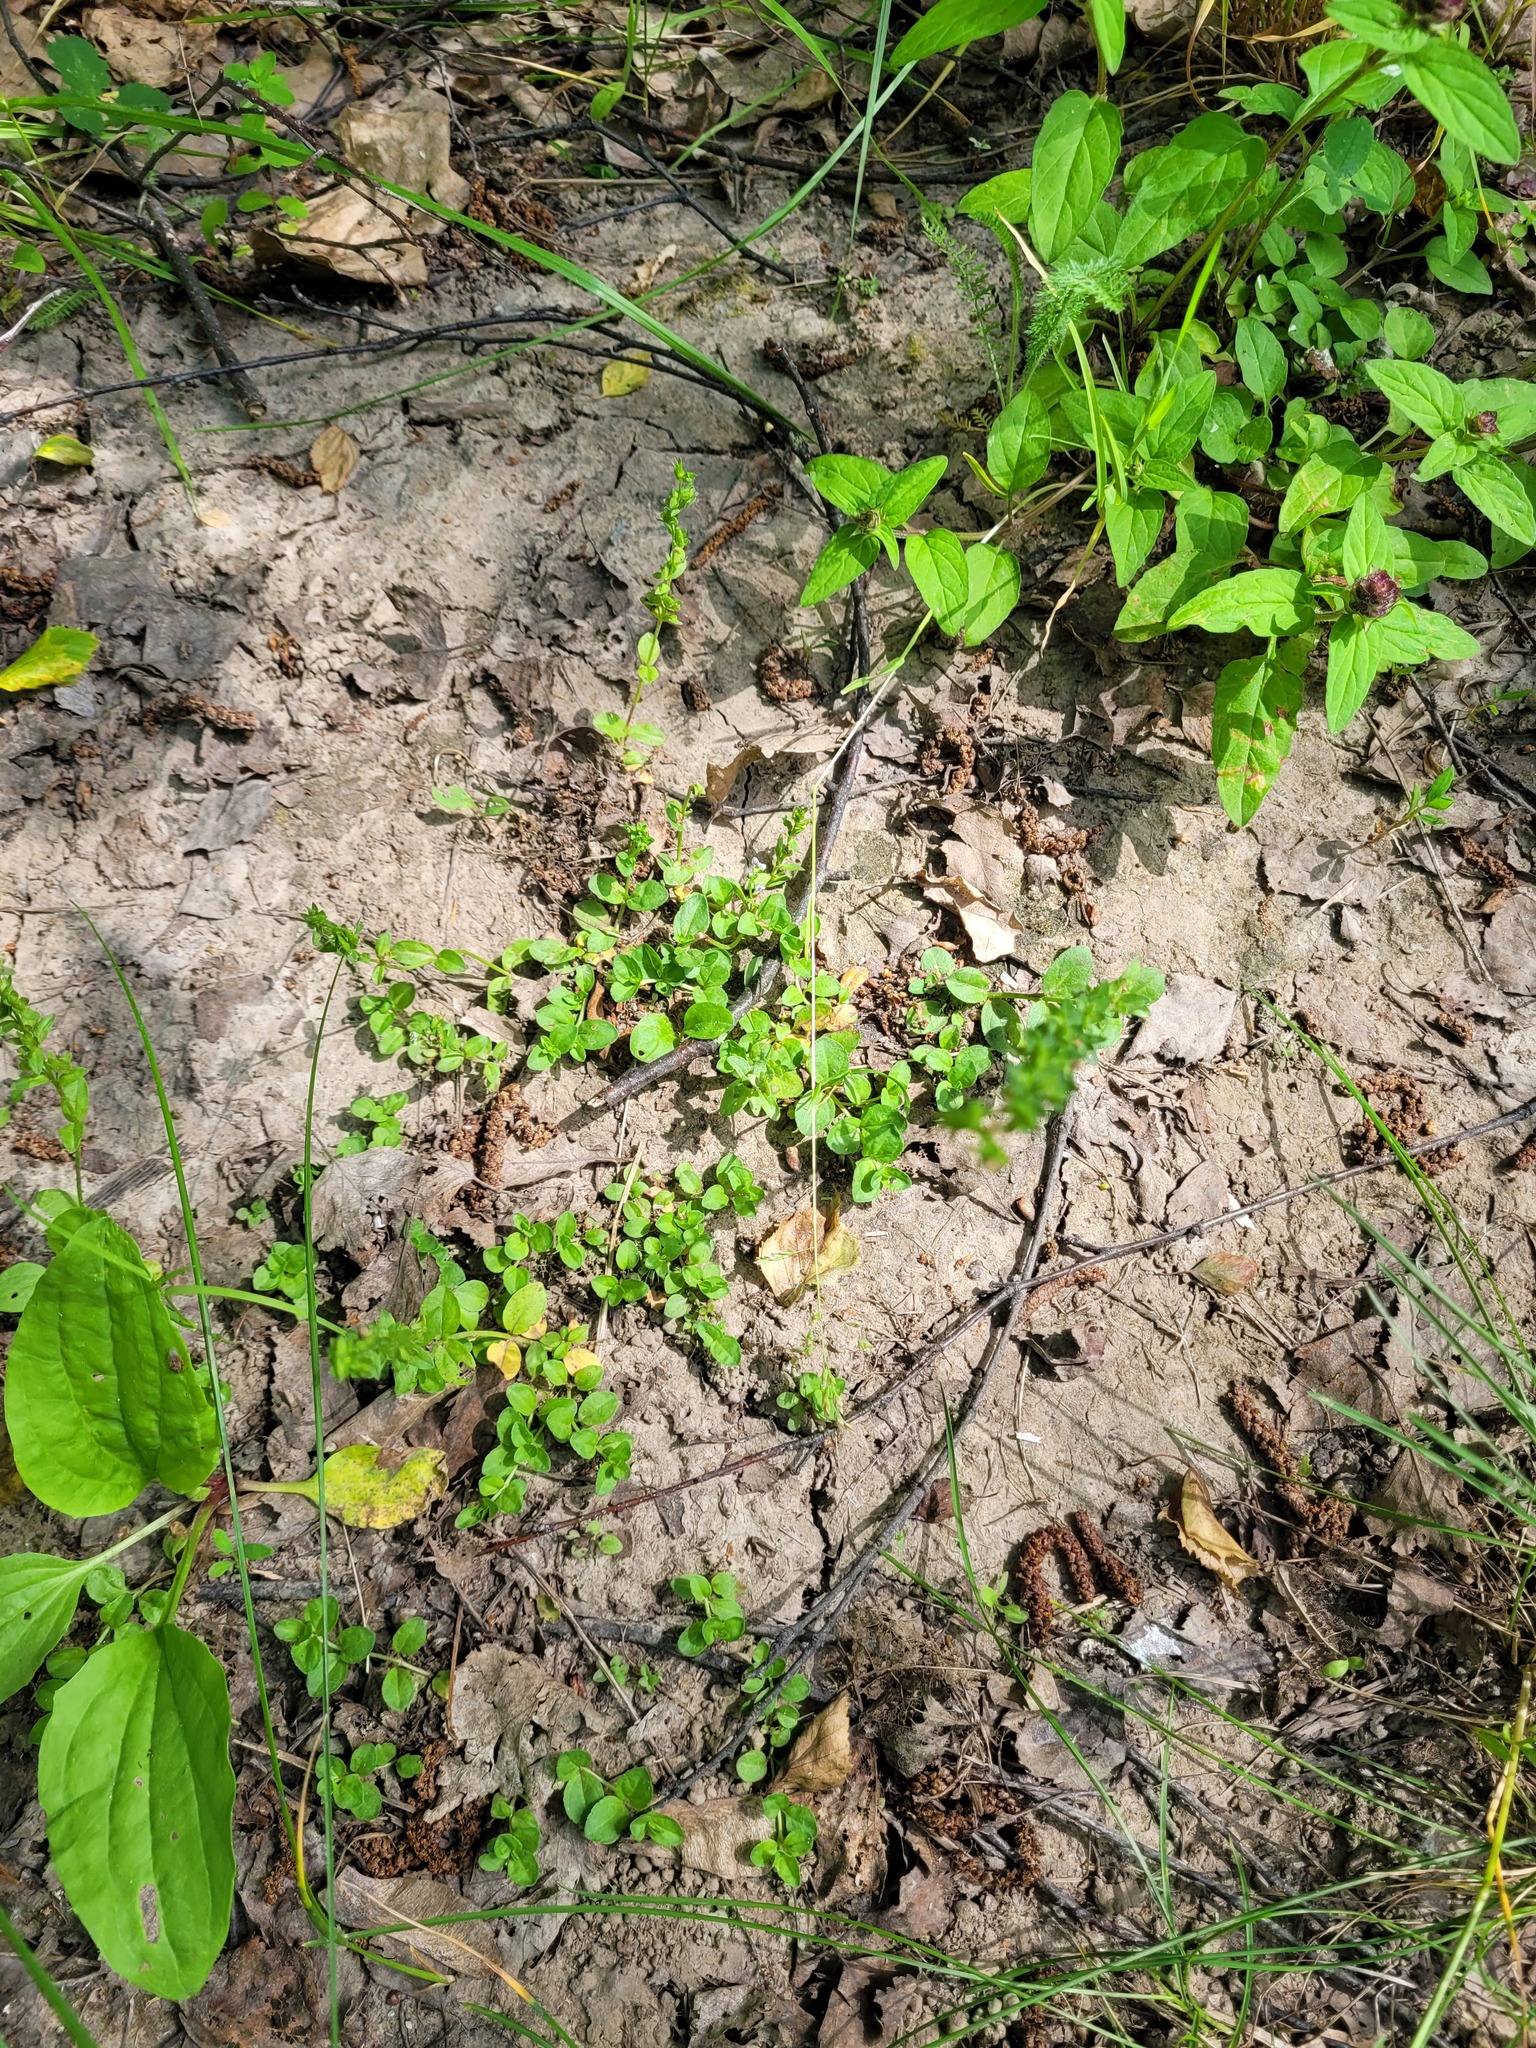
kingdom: Plantae
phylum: Tracheophyta
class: Magnoliopsida
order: Lamiales
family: Plantaginaceae
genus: Veronica
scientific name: Veronica serpyllifolia
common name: Thyme-leaved speedwell
